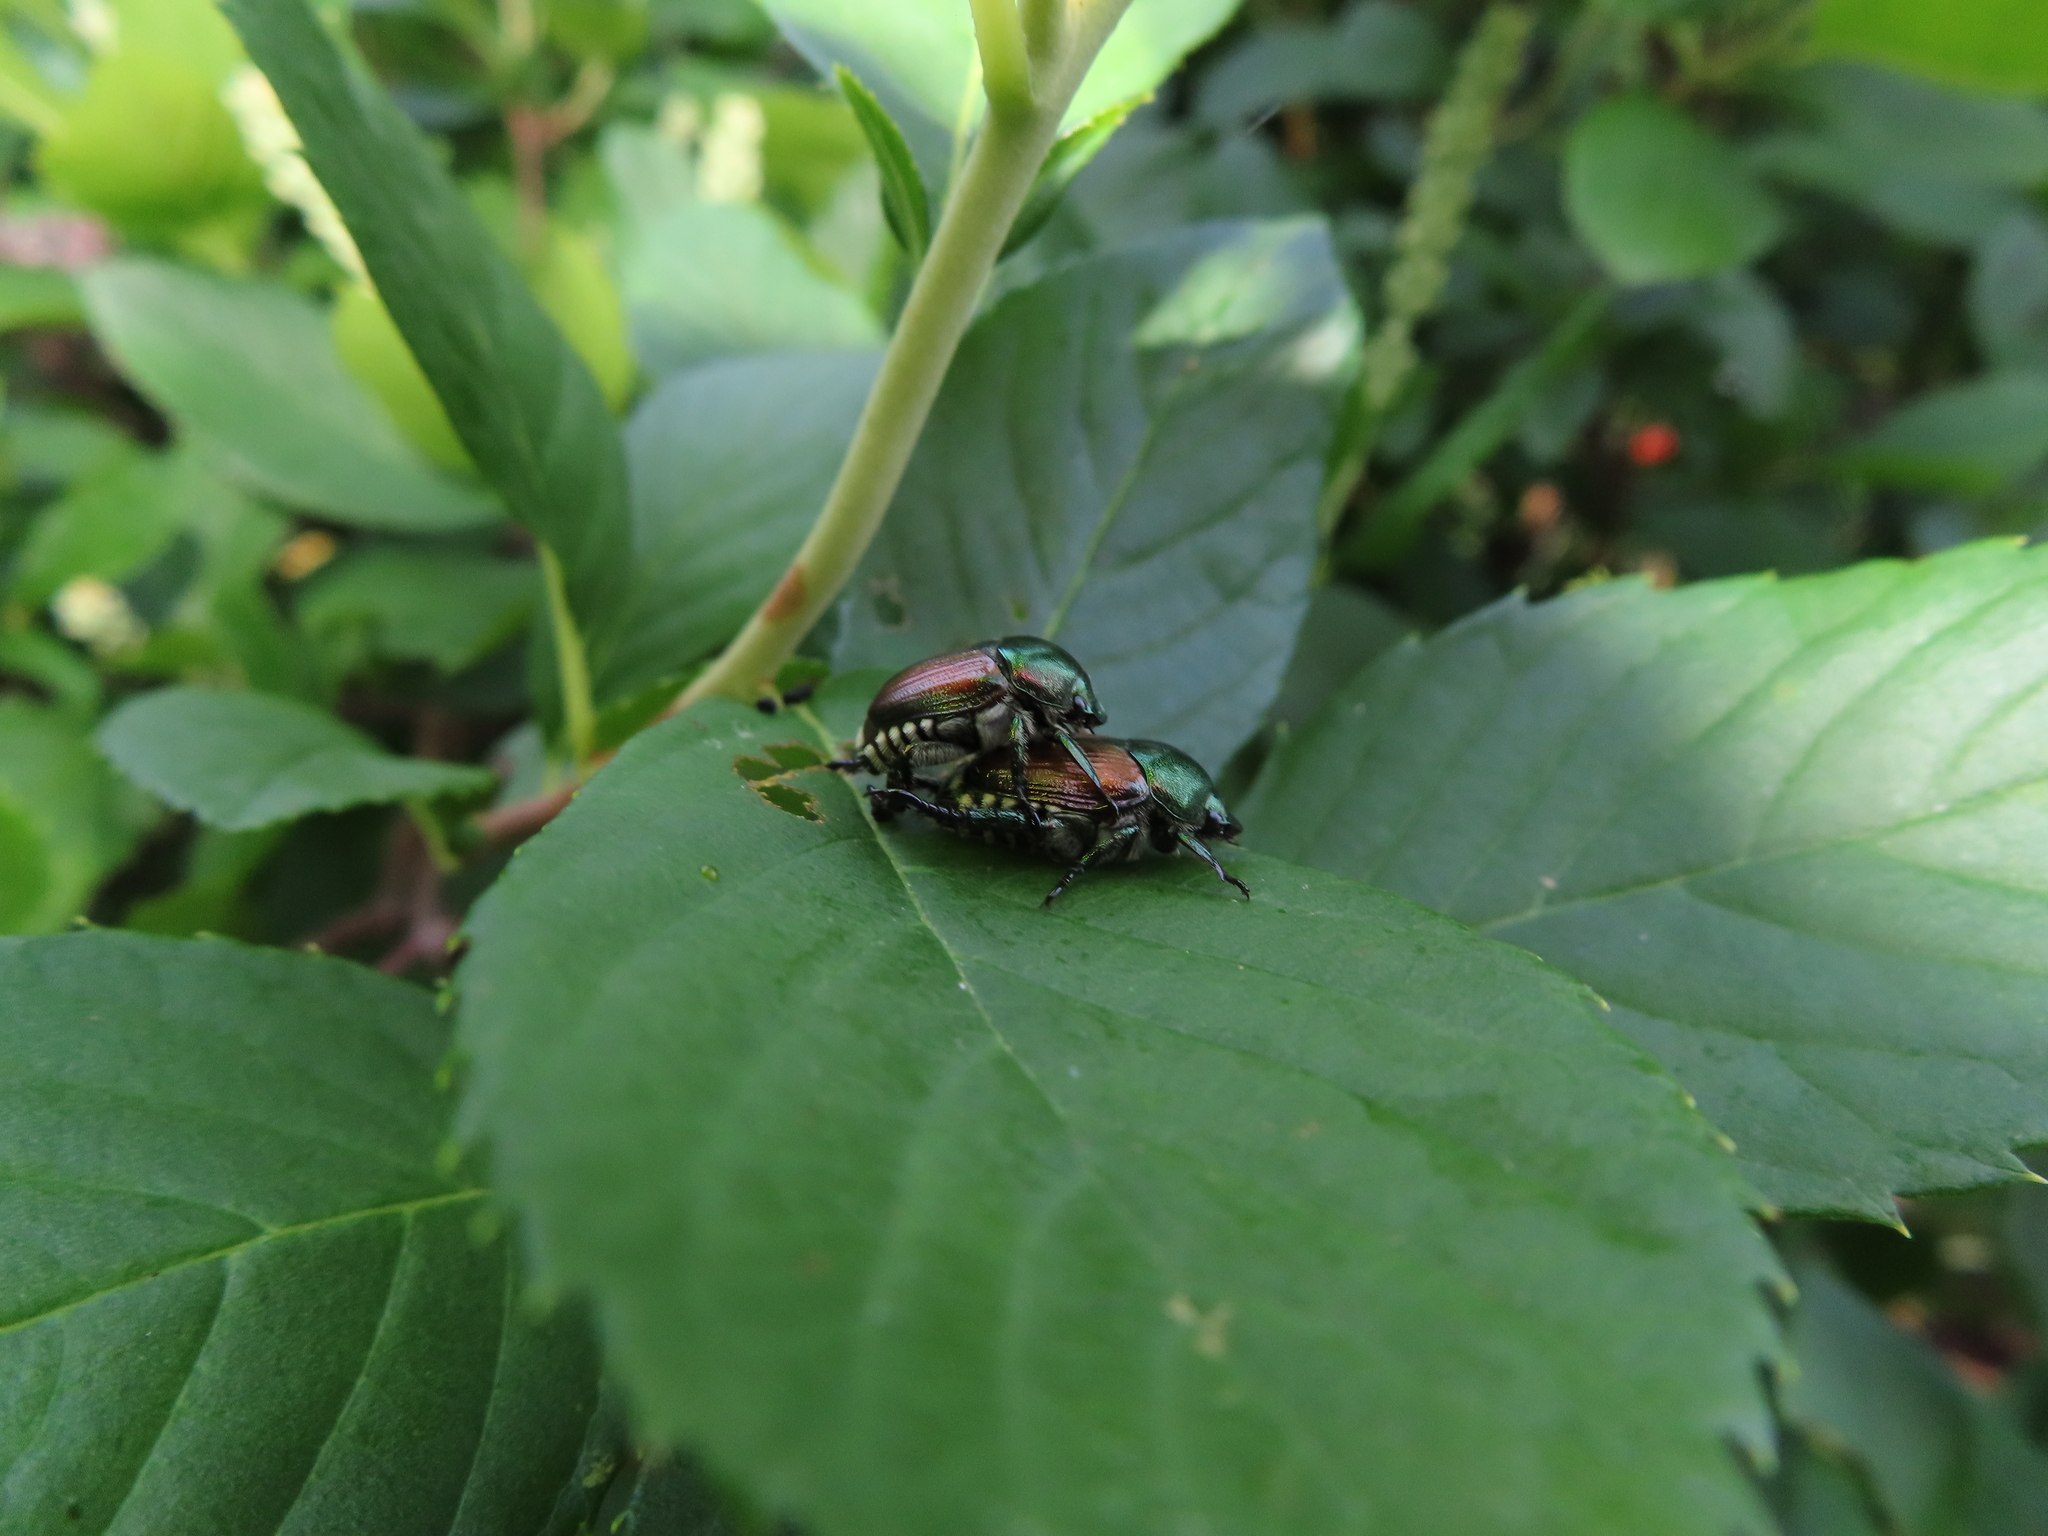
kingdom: Animalia
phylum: Arthropoda
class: Insecta
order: Coleoptera
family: Scarabaeidae
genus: Popillia
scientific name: Popillia japonica
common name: Japanese beetle
